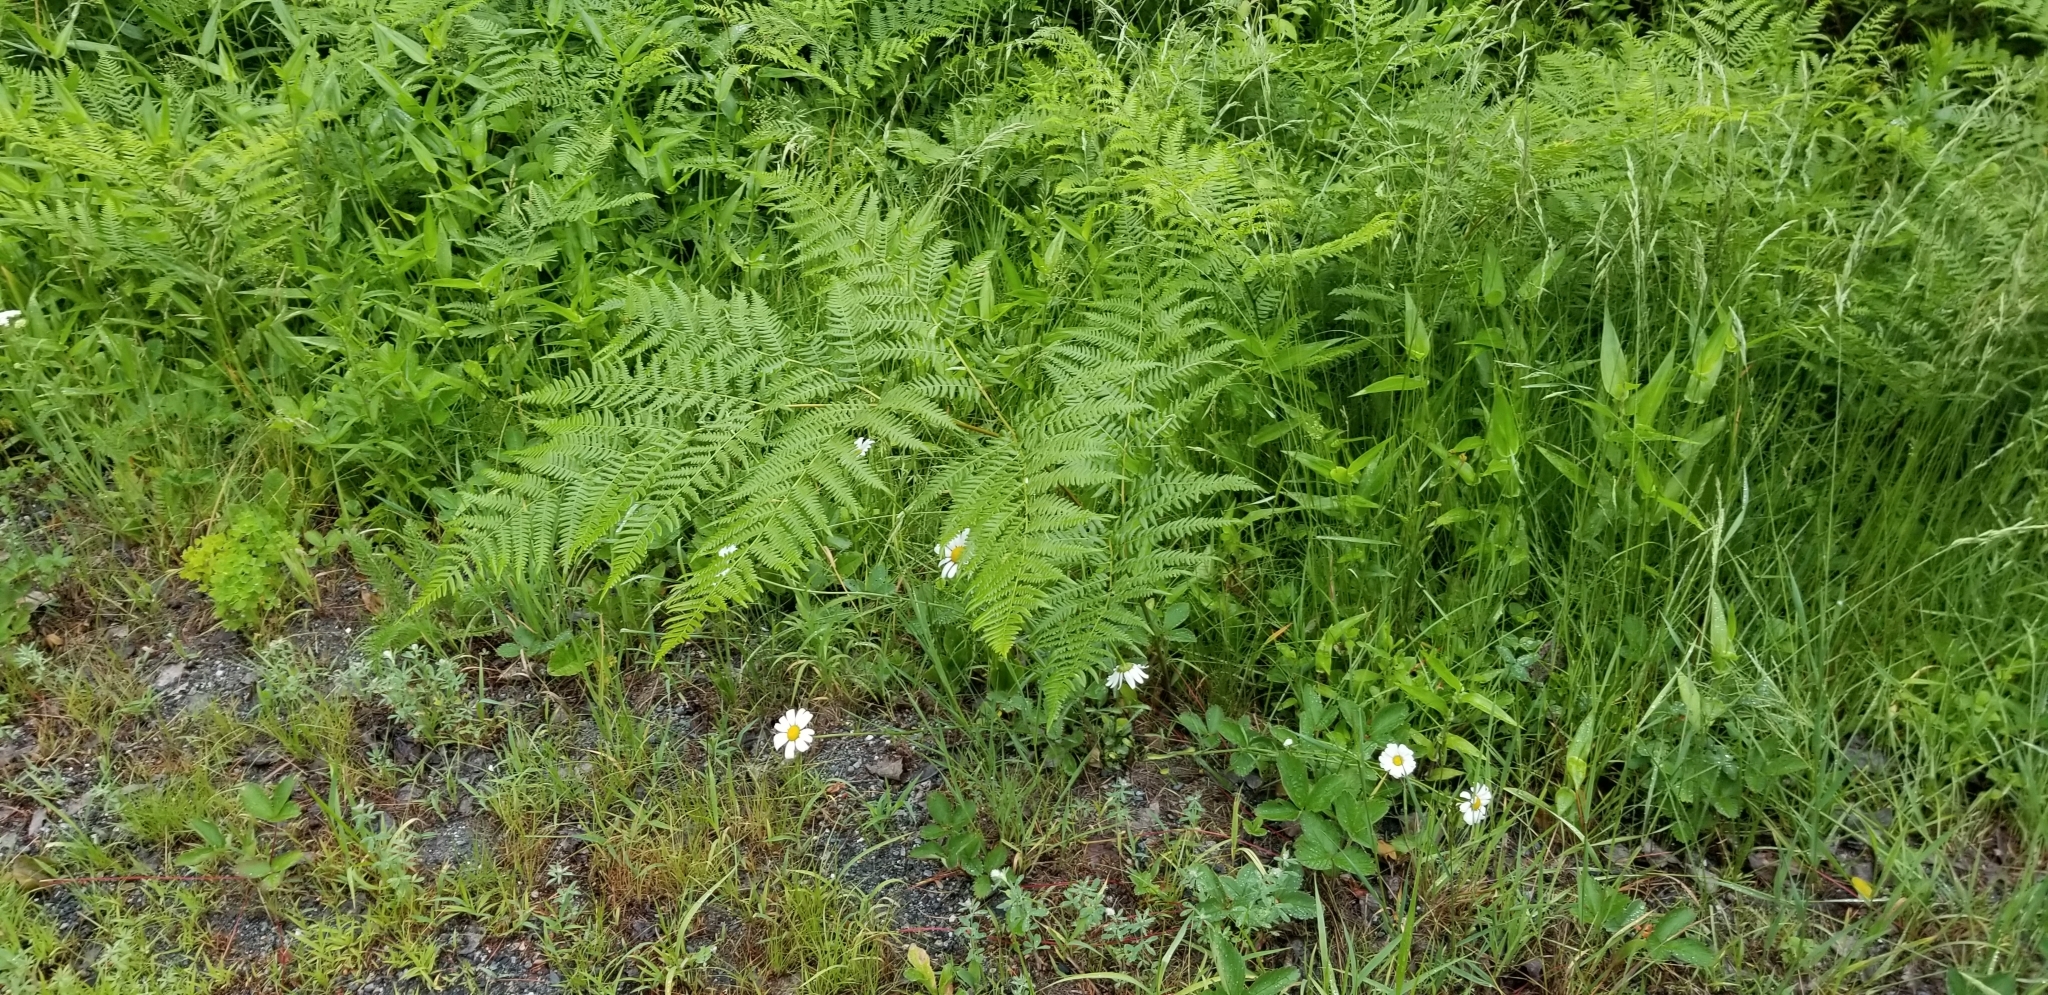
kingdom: Plantae
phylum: Tracheophyta
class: Polypodiopsida
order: Polypodiales
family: Dennstaedtiaceae
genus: Pteridium
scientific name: Pteridium aquilinum
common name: Bracken
